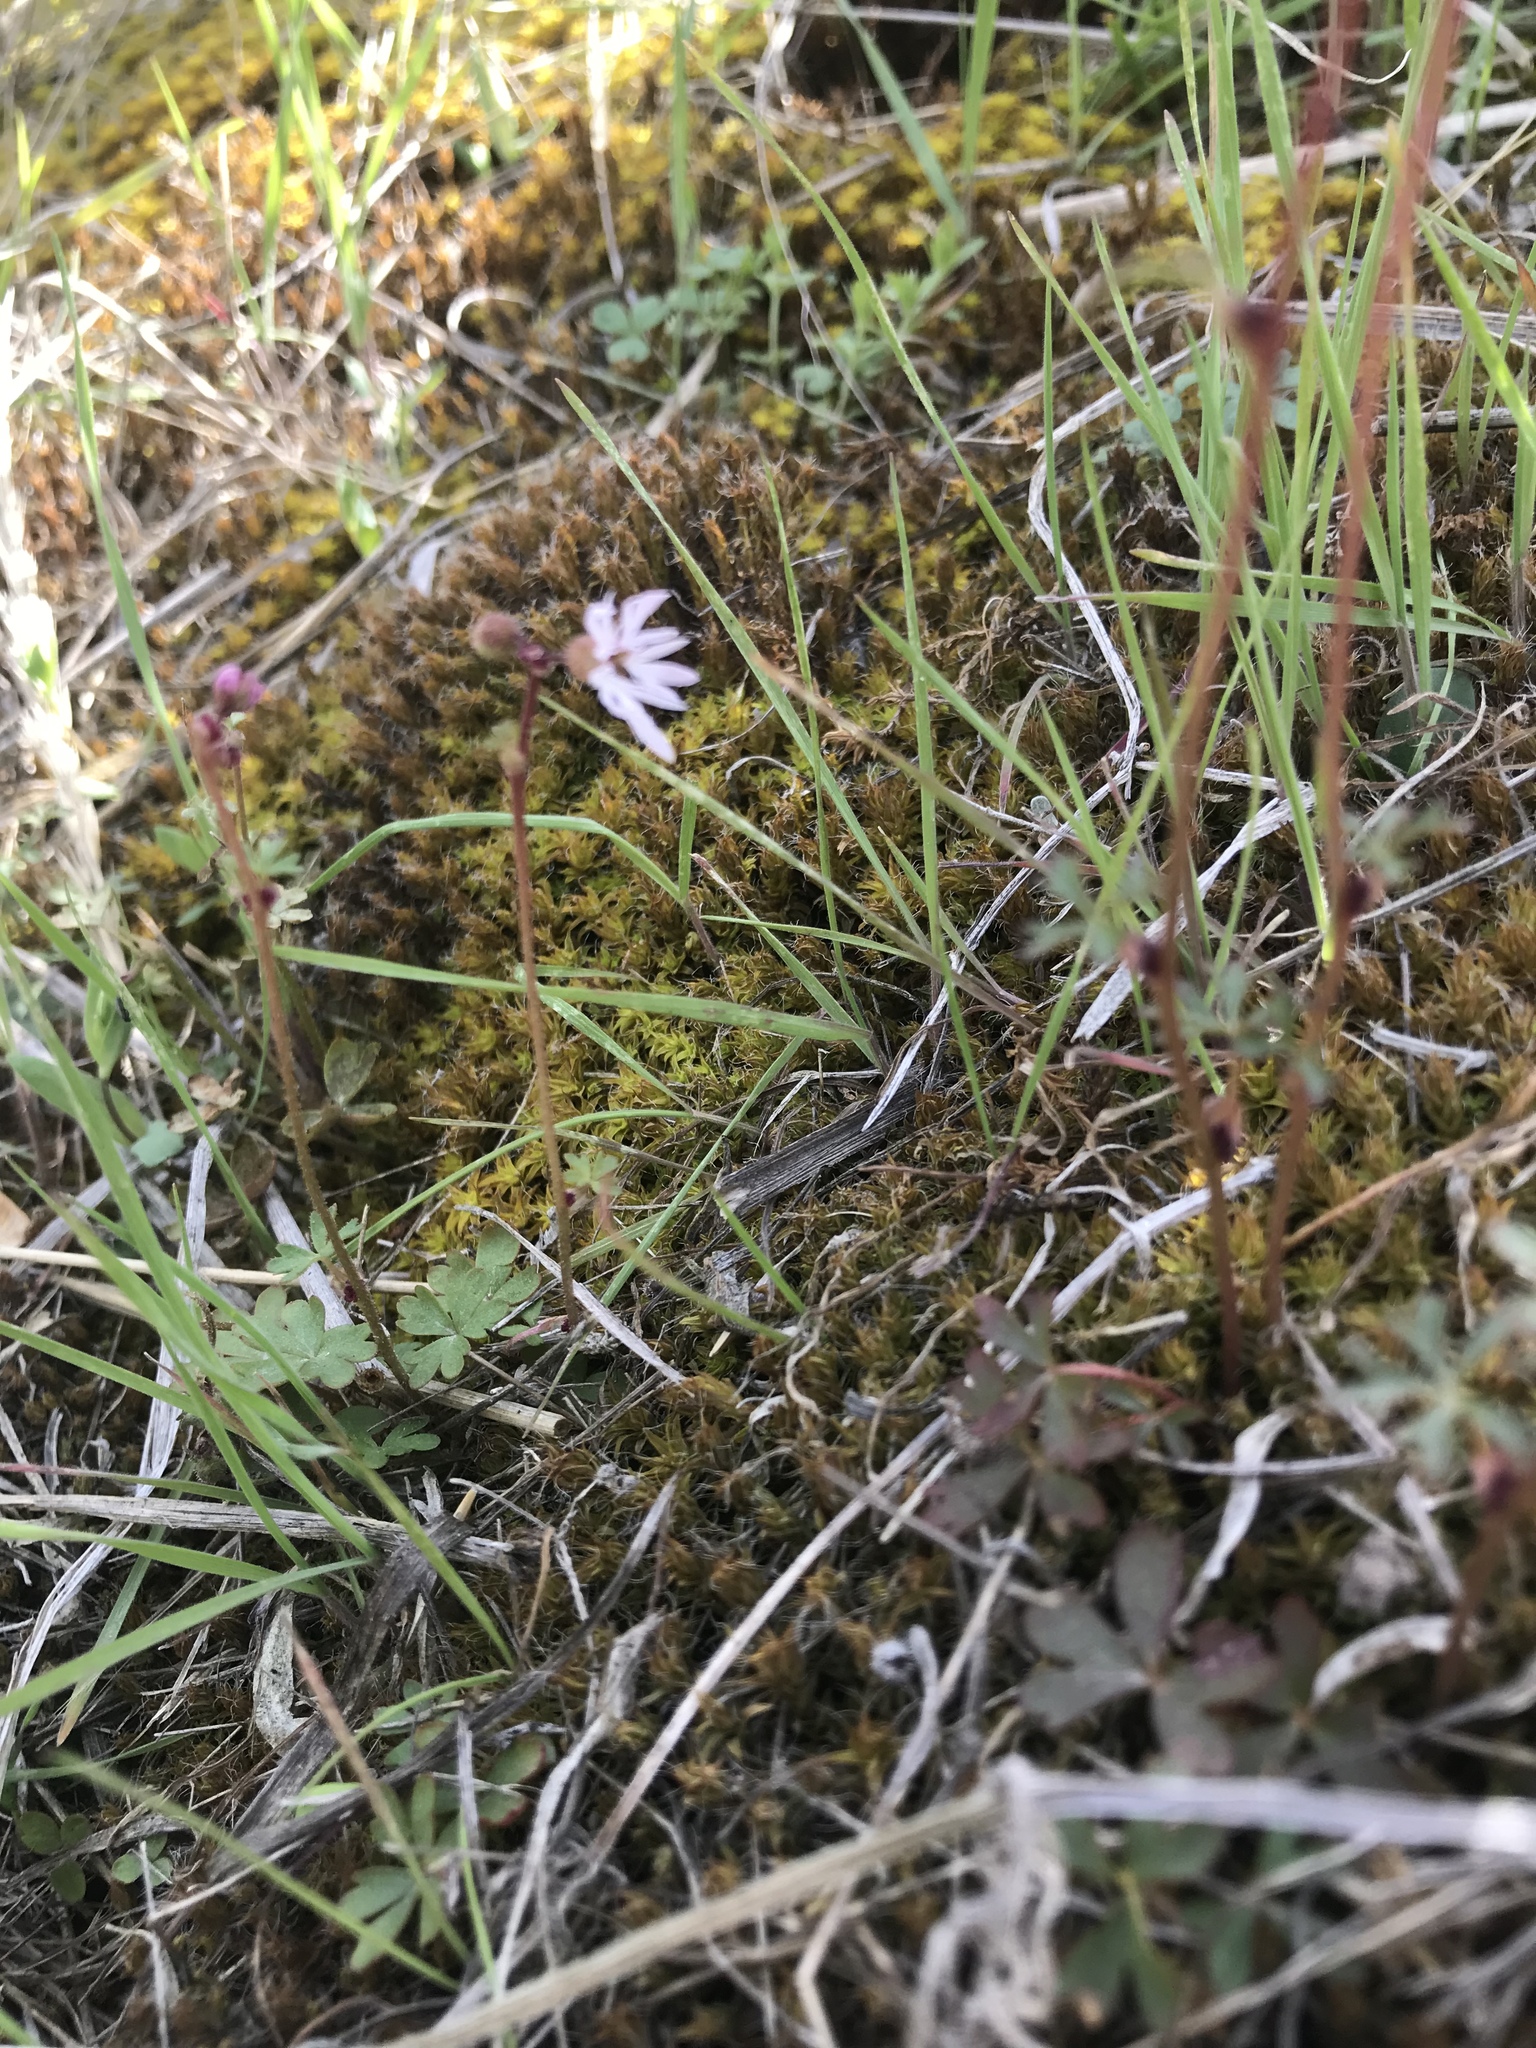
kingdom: Plantae
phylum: Tracheophyta
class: Magnoliopsida
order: Saxifragales
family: Saxifragaceae
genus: Lithophragma
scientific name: Lithophragma glabrum
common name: Bulbous prairie-star
